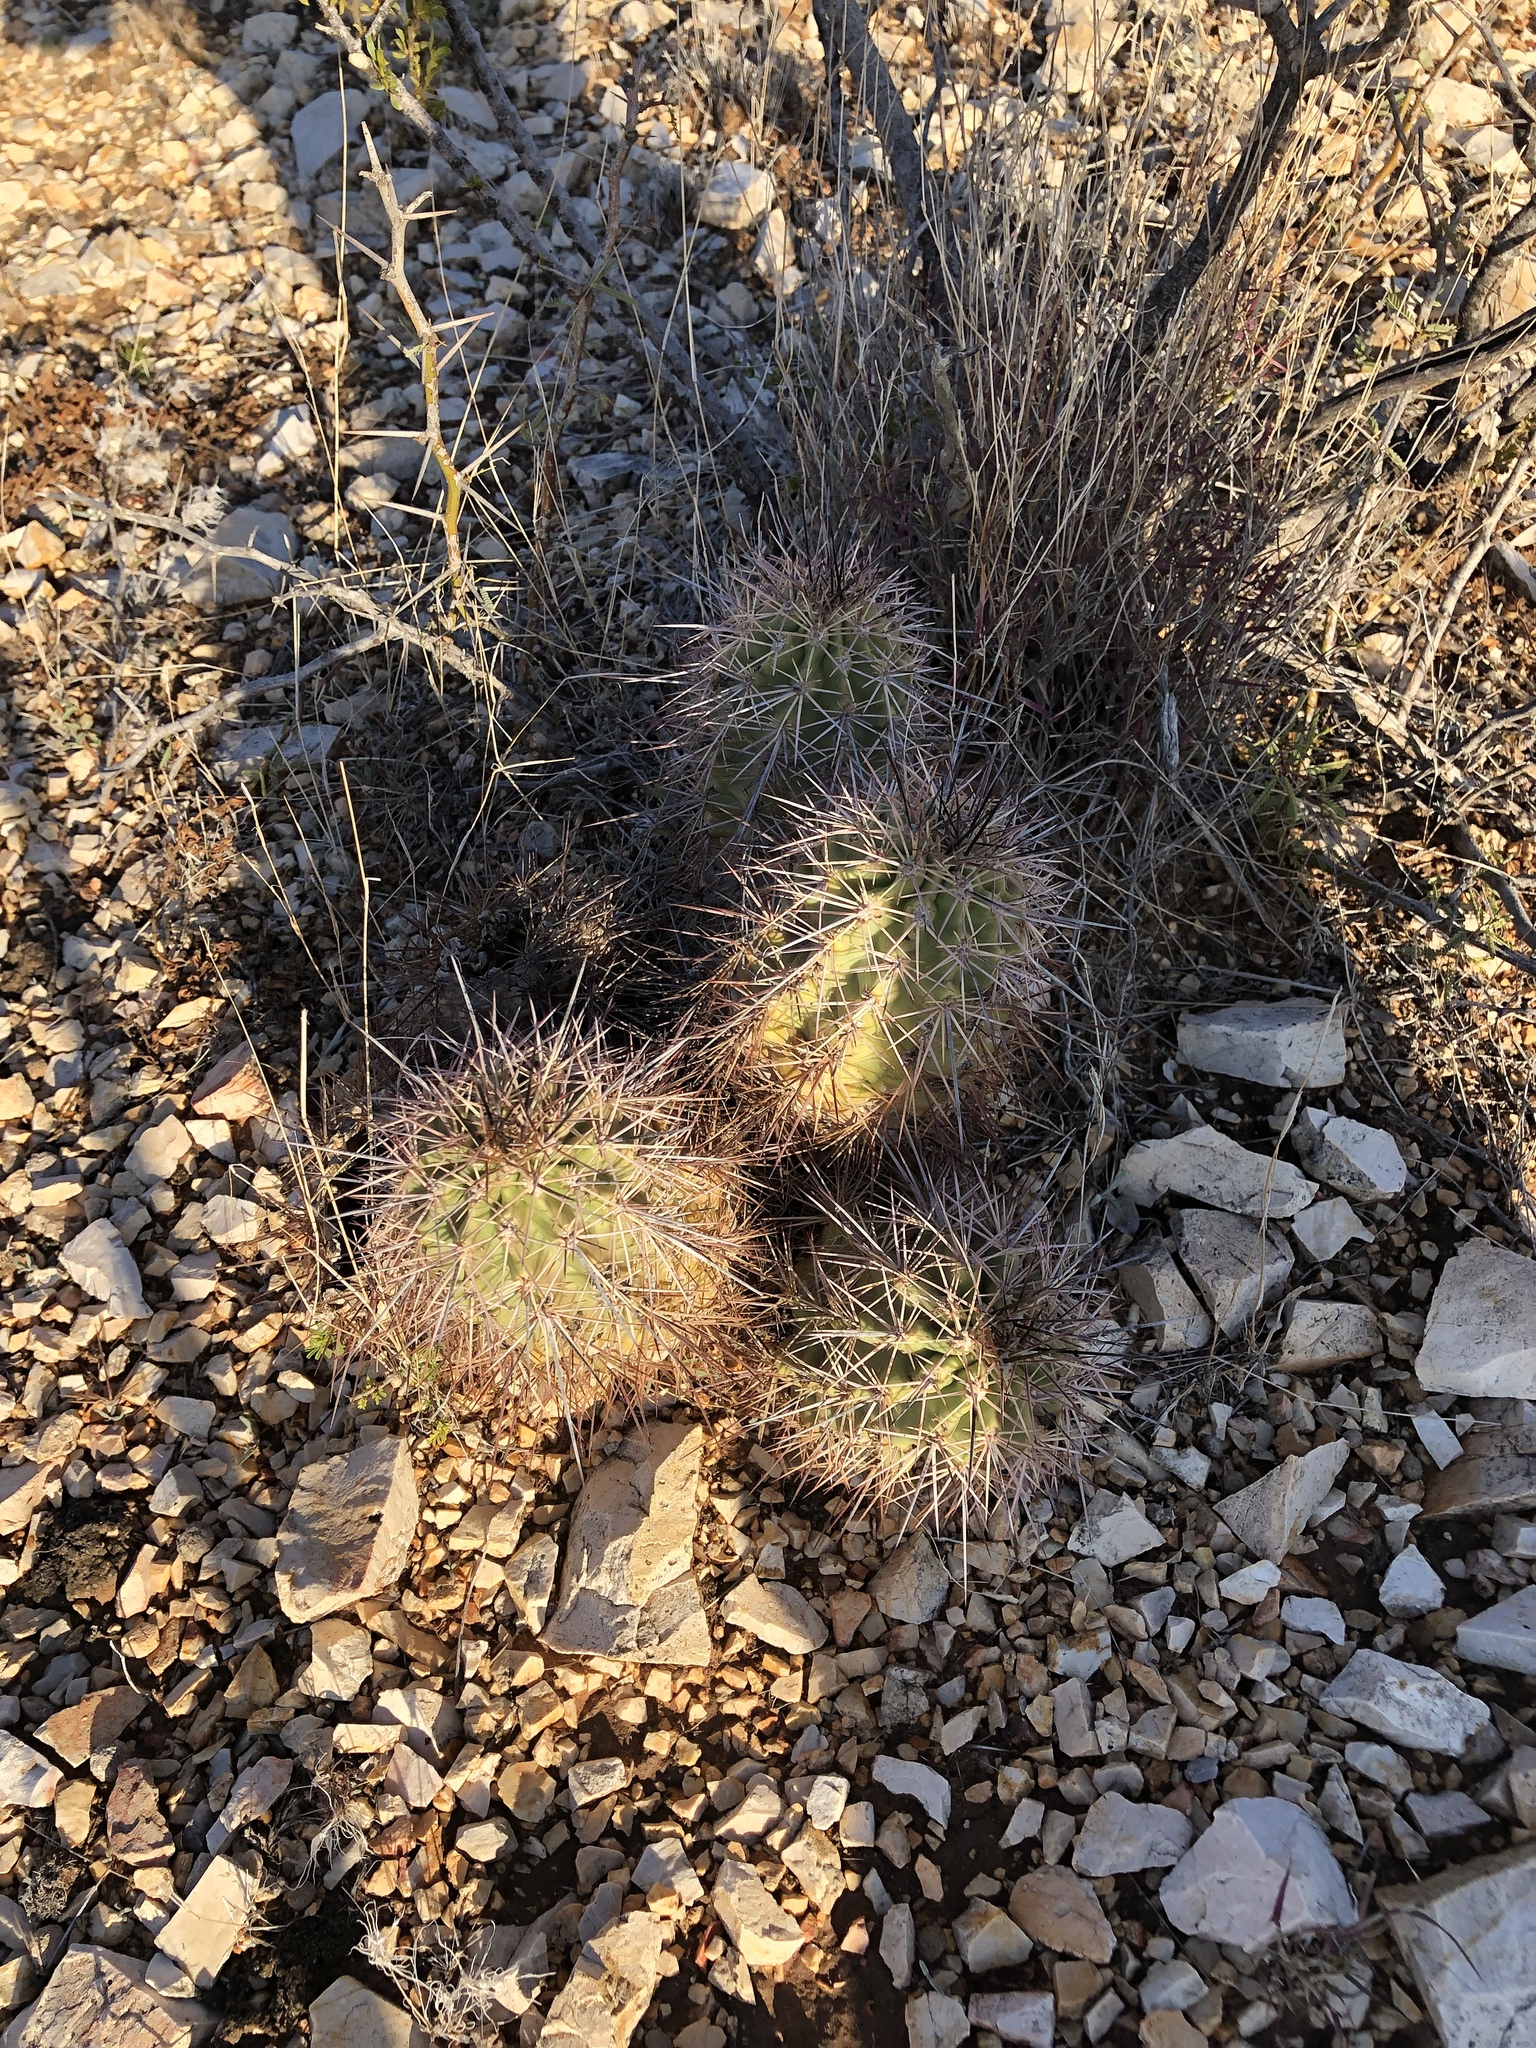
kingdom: Plantae
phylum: Tracheophyta
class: Magnoliopsida
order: Caryophyllales
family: Cactaceae
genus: Echinocereus
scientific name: Echinocereus coccineus
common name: Scarlet hedgehog cactus
